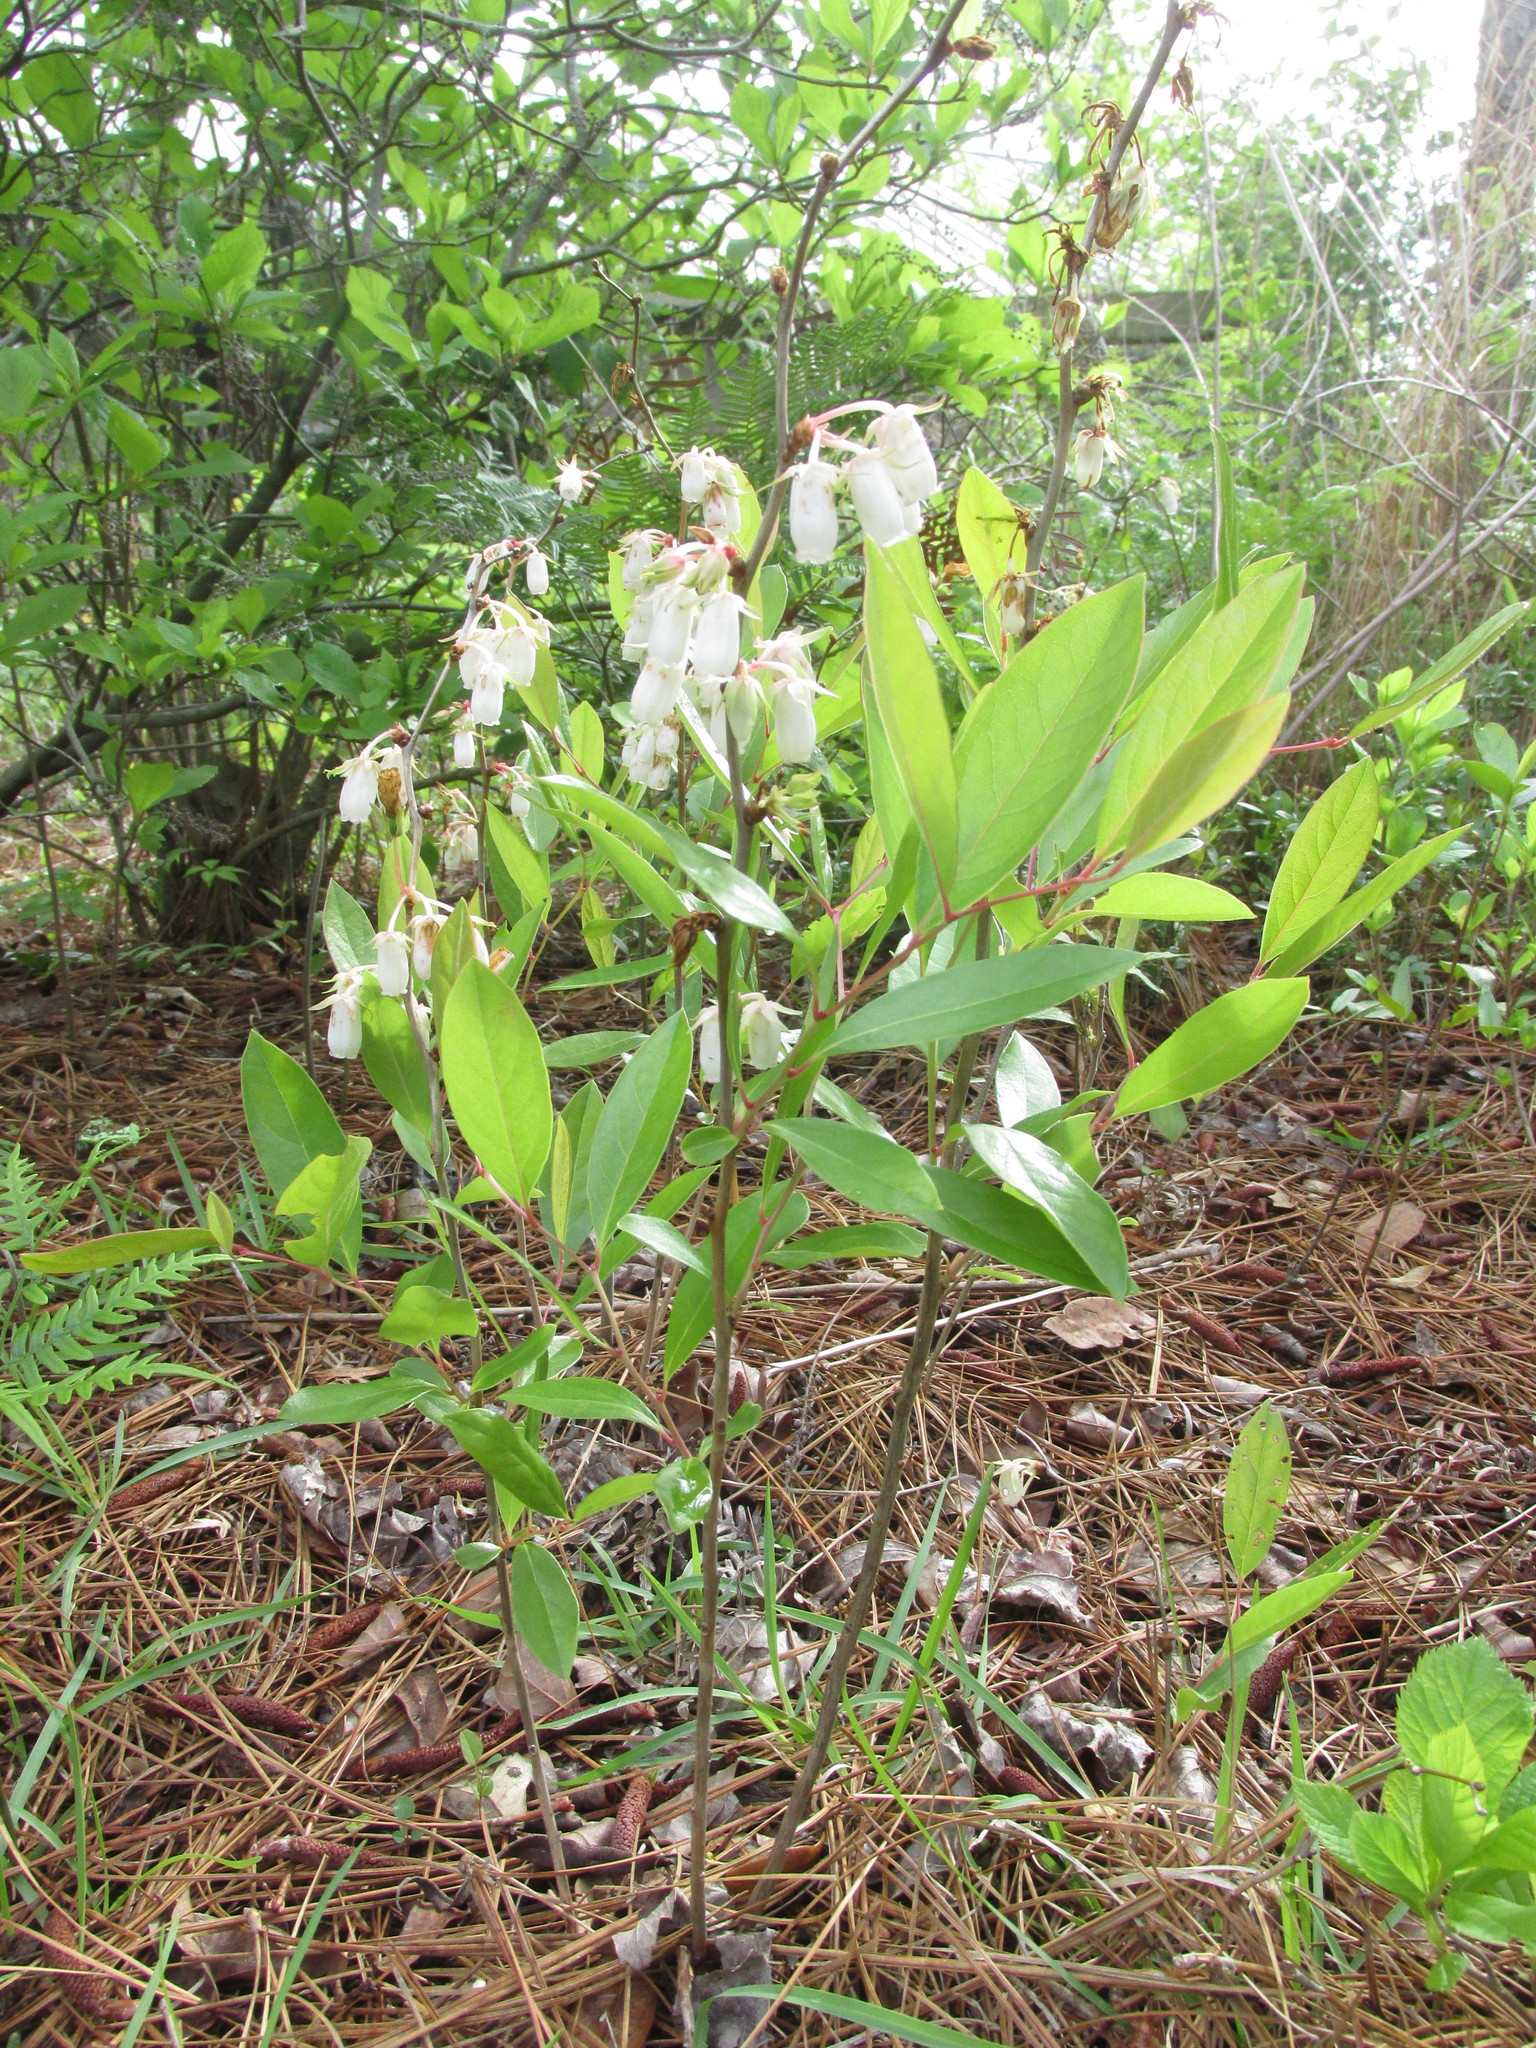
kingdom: Plantae
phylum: Tracheophyta
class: Magnoliopsida
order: Ericales
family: Ericaceae
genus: Lyonia
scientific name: Lyonia mariana
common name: Staggerbush
